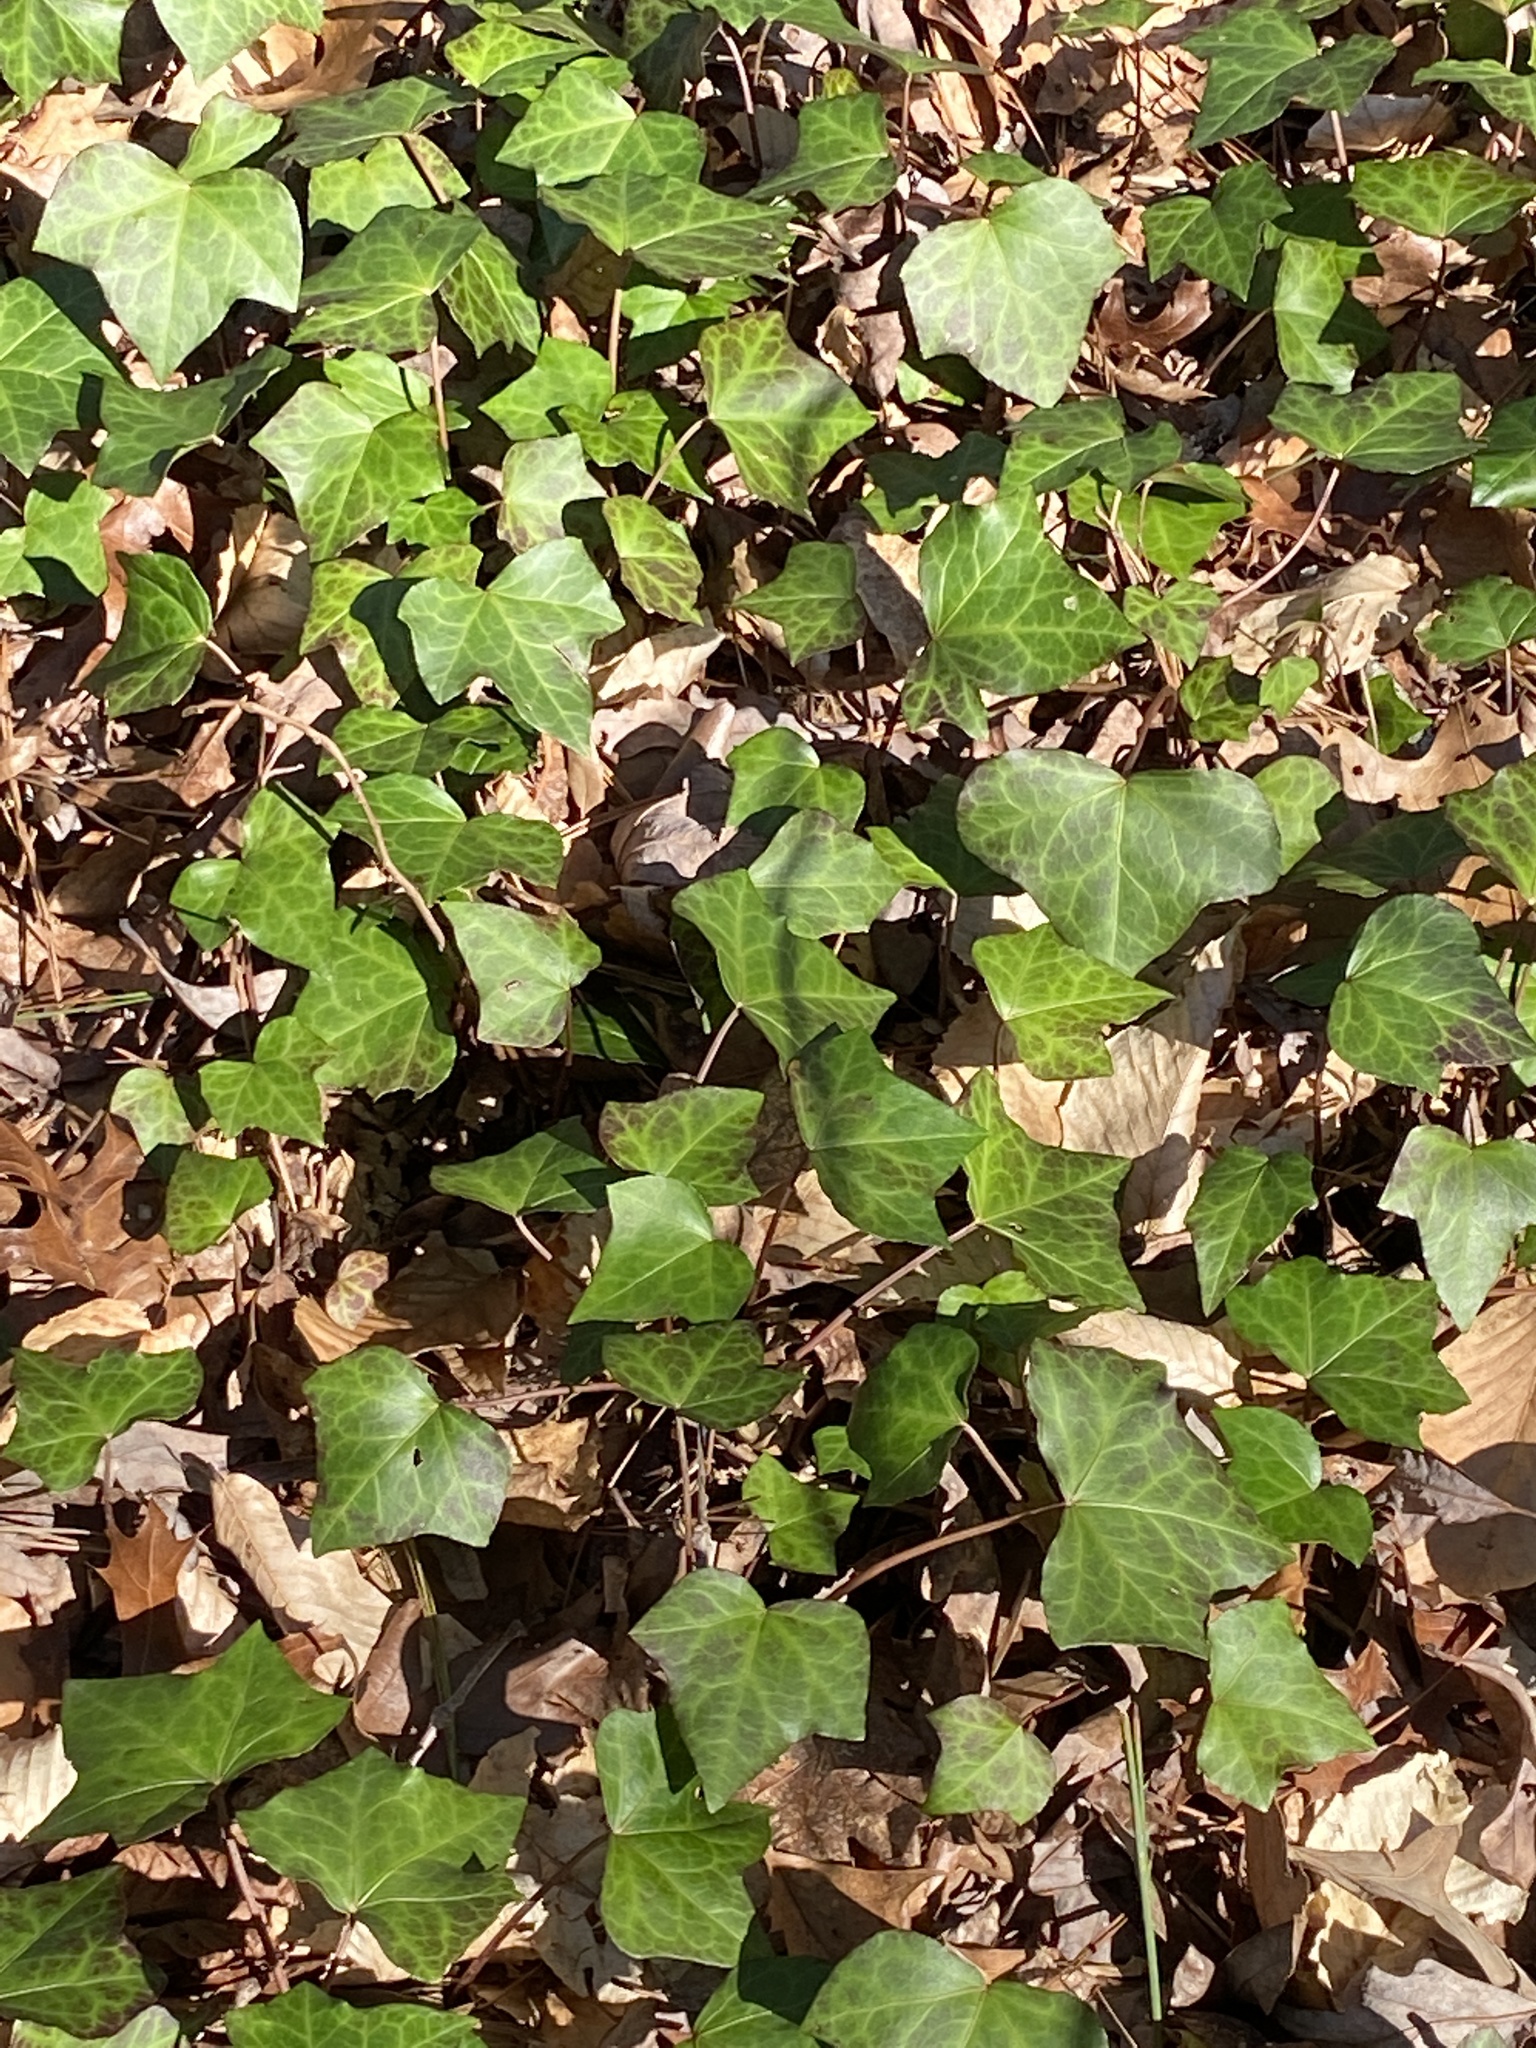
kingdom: Plantae
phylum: Tracheophyta
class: Magnoliopsida
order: Apiales
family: Araliaceae
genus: Hedera
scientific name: Hedera helix
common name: Ivy
